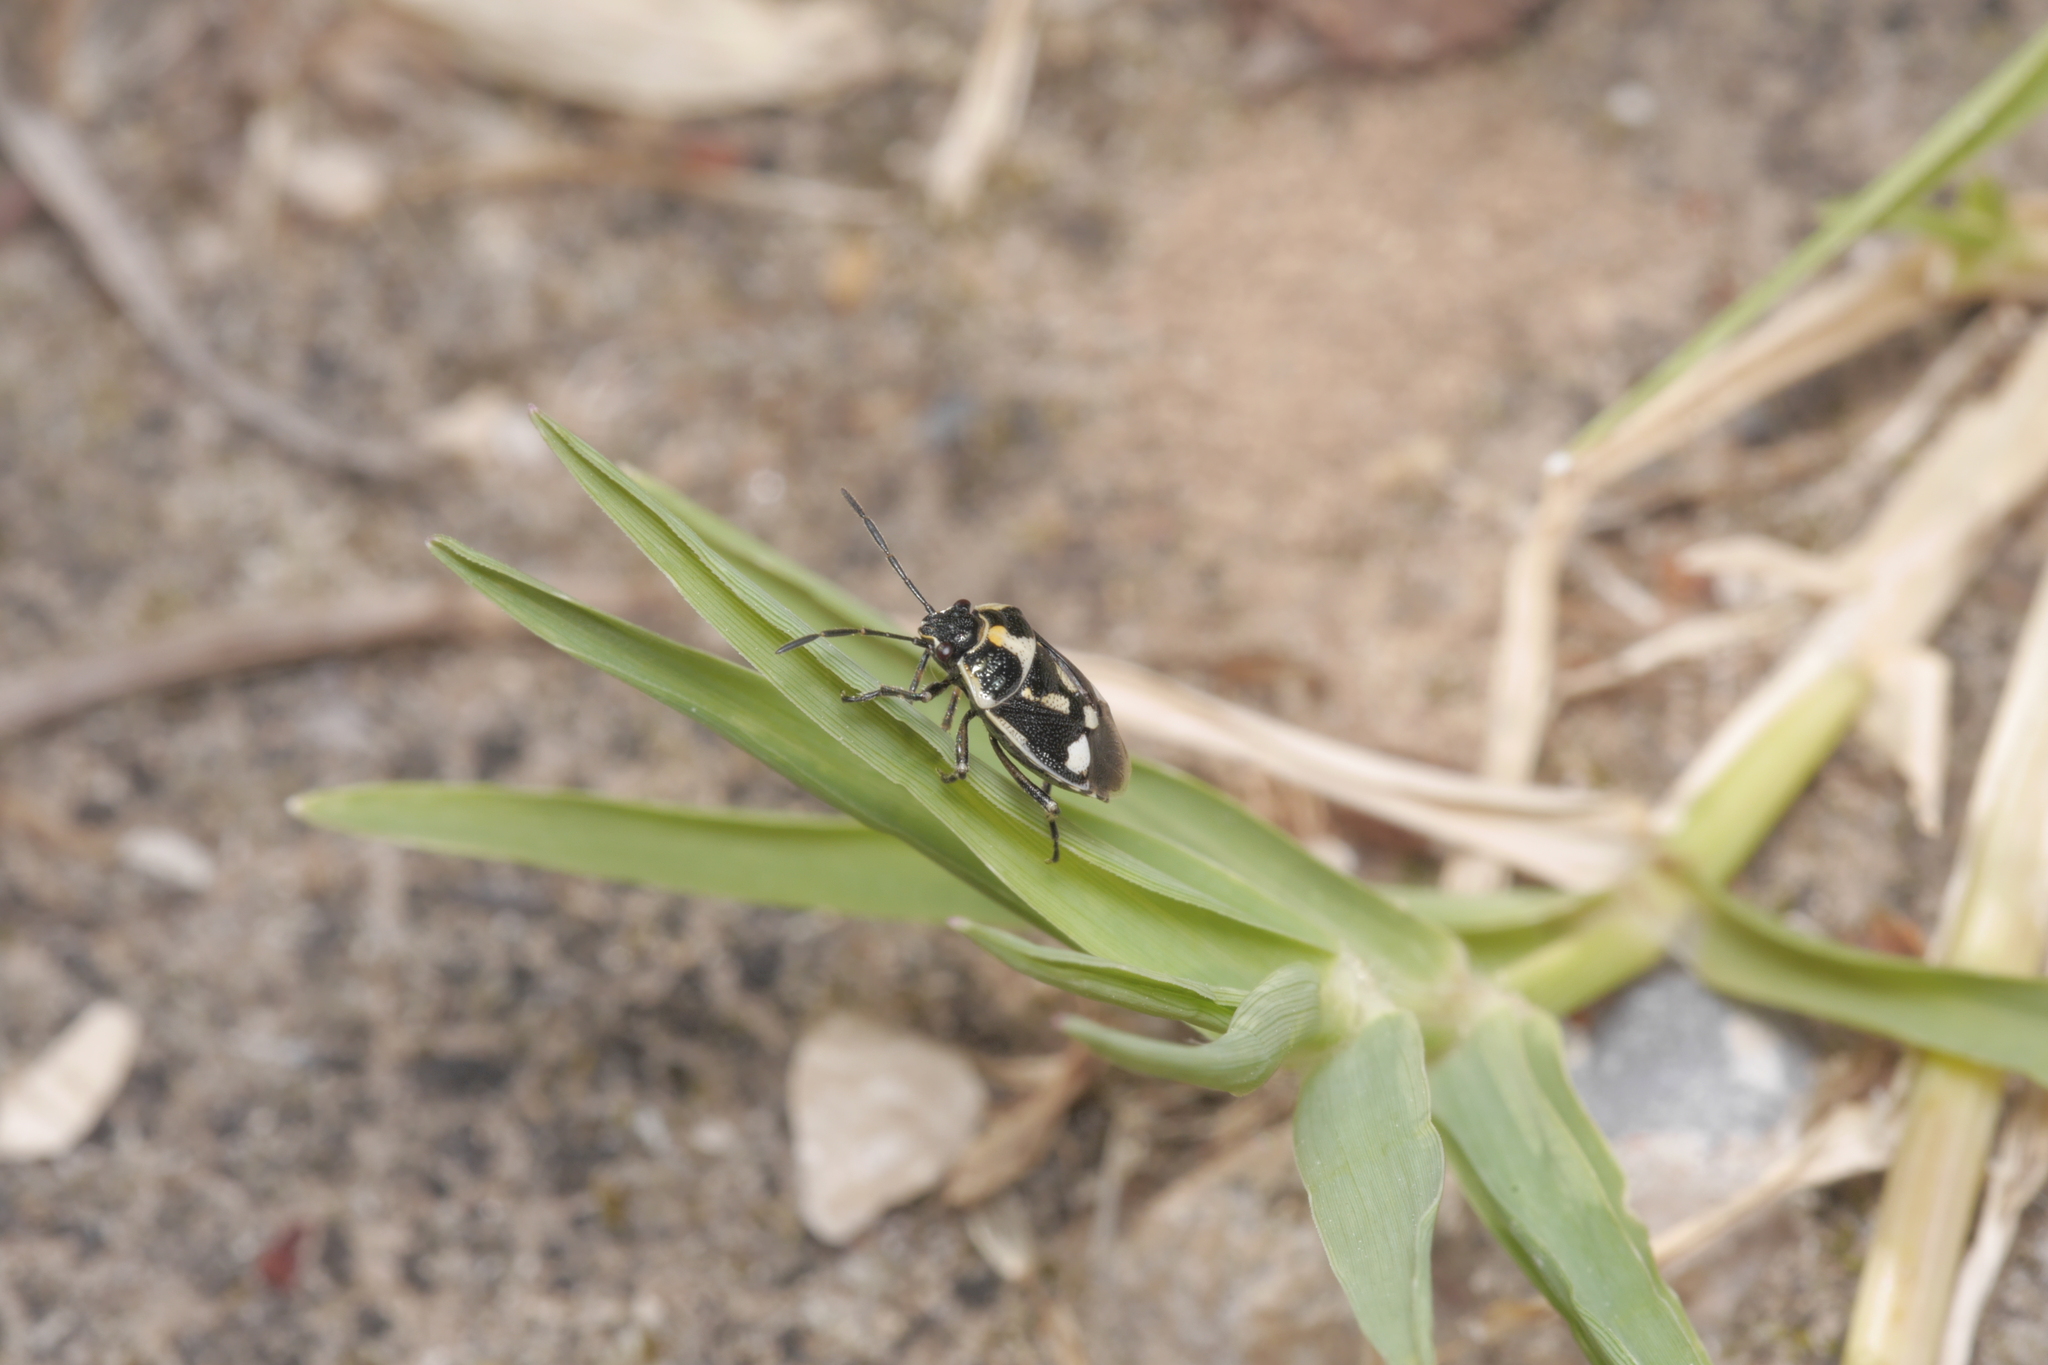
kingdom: Animalia
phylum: Arthropoda
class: Insecta
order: Hemiptera
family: Pentatomidae
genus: Eurydema
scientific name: Eurydema oleracea
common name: Cabbage bug
